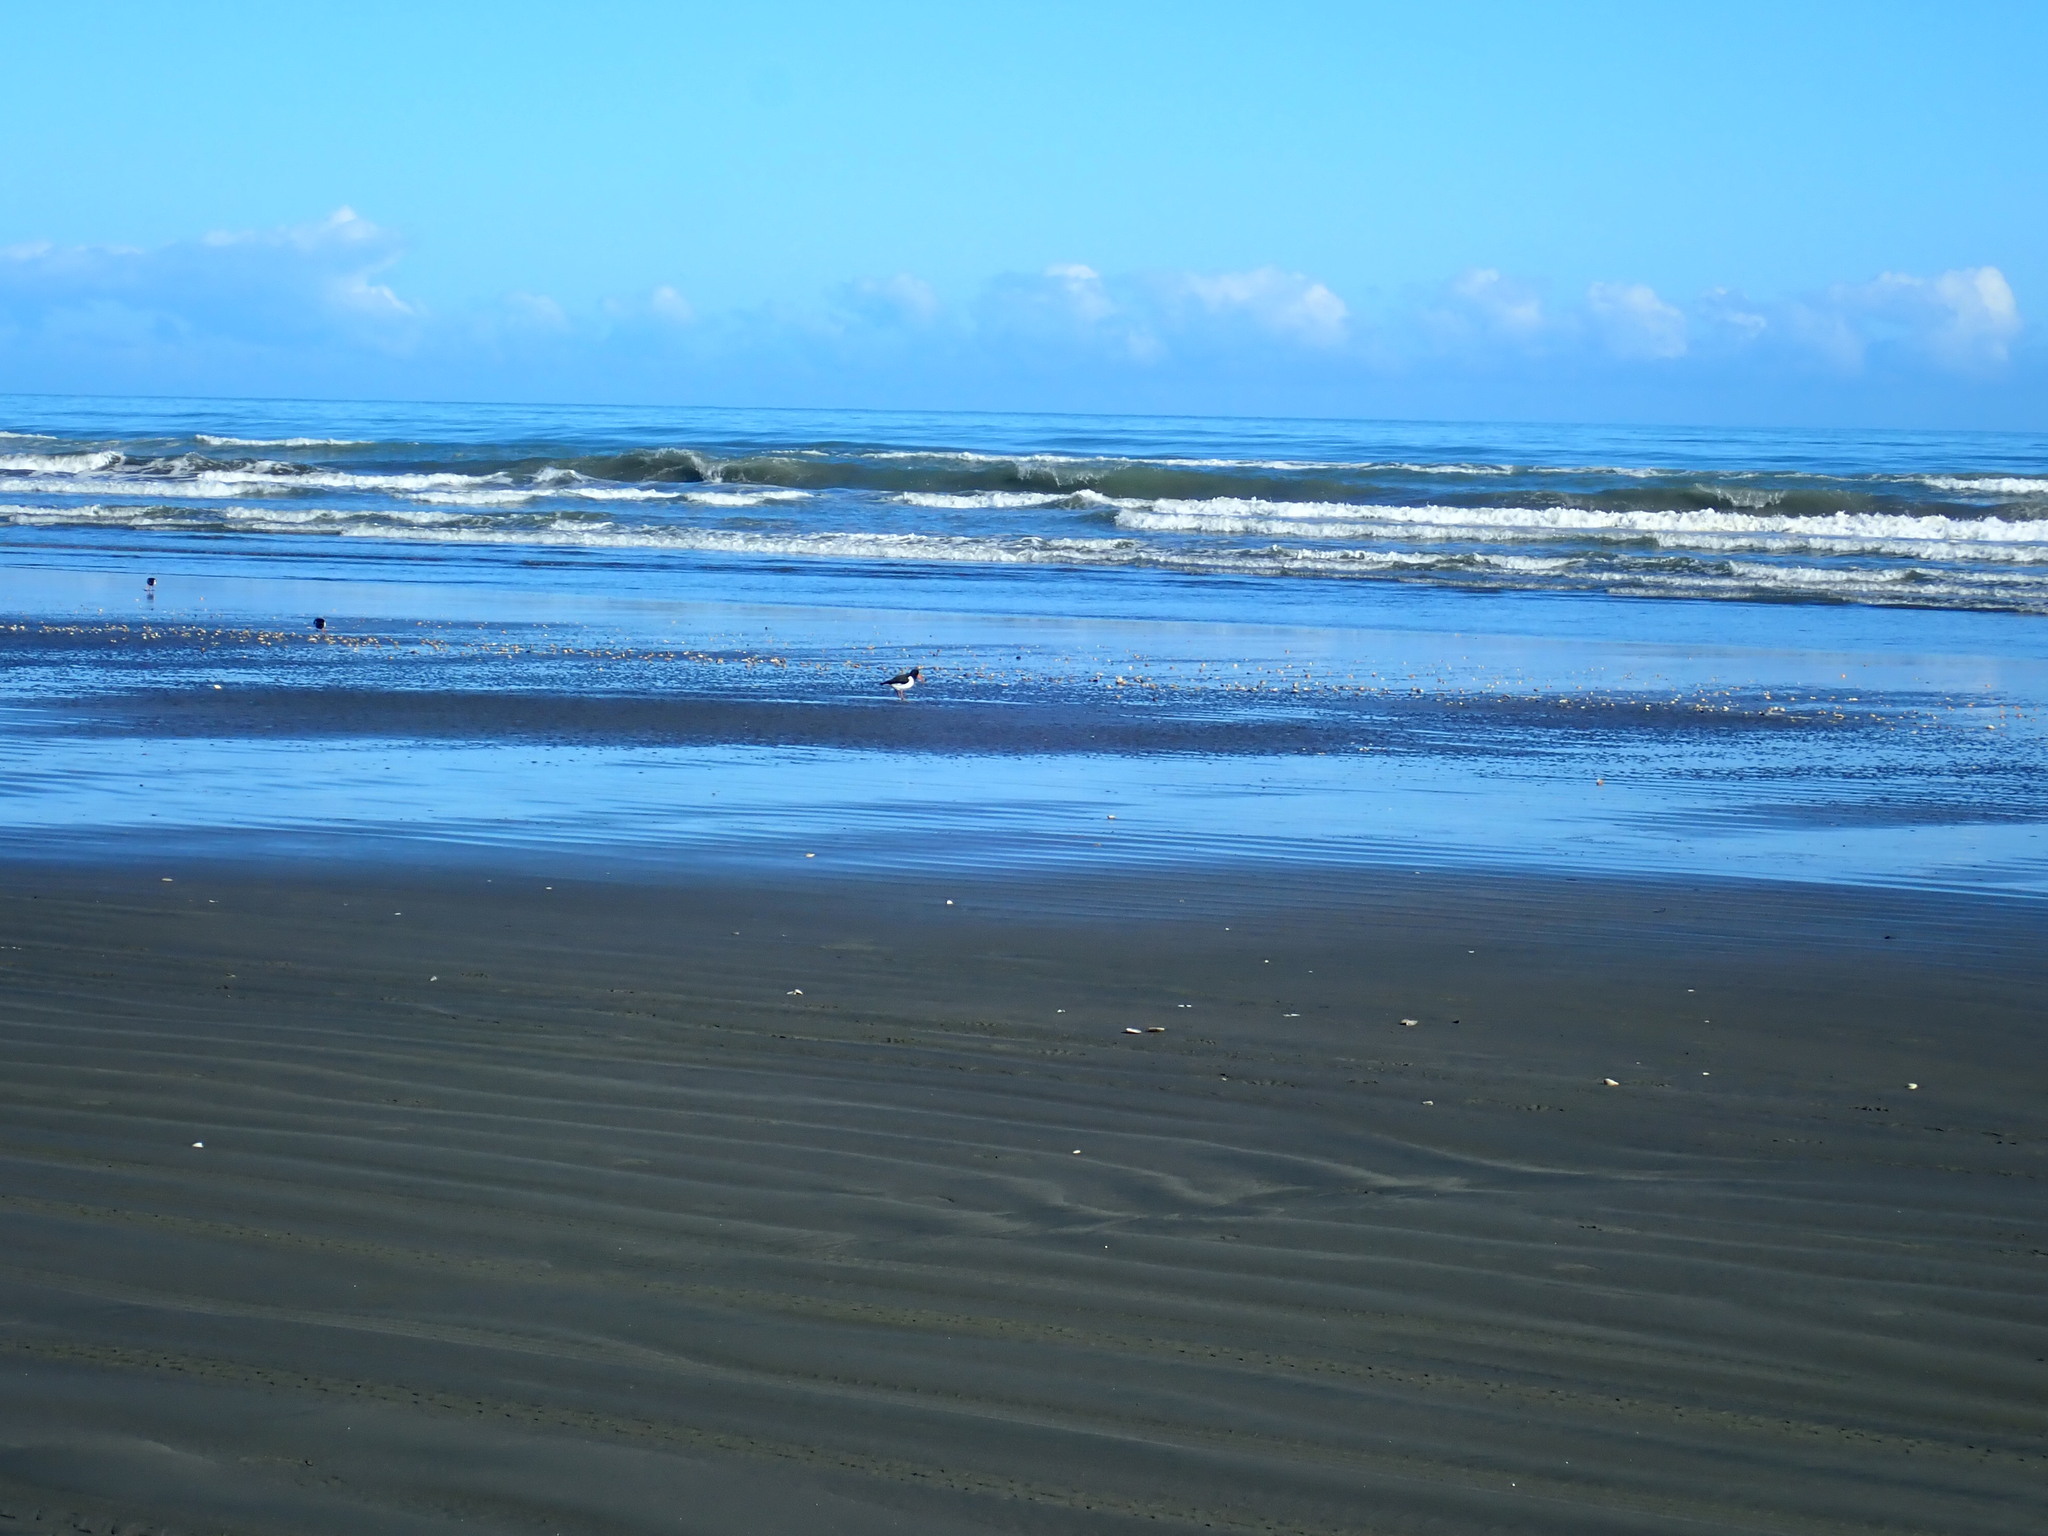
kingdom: Animalia
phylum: Chordata
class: Aves
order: Charadriiformes
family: Haematopodidae
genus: Haematopus
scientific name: Haematopus finschi
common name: South island oystercatcher
